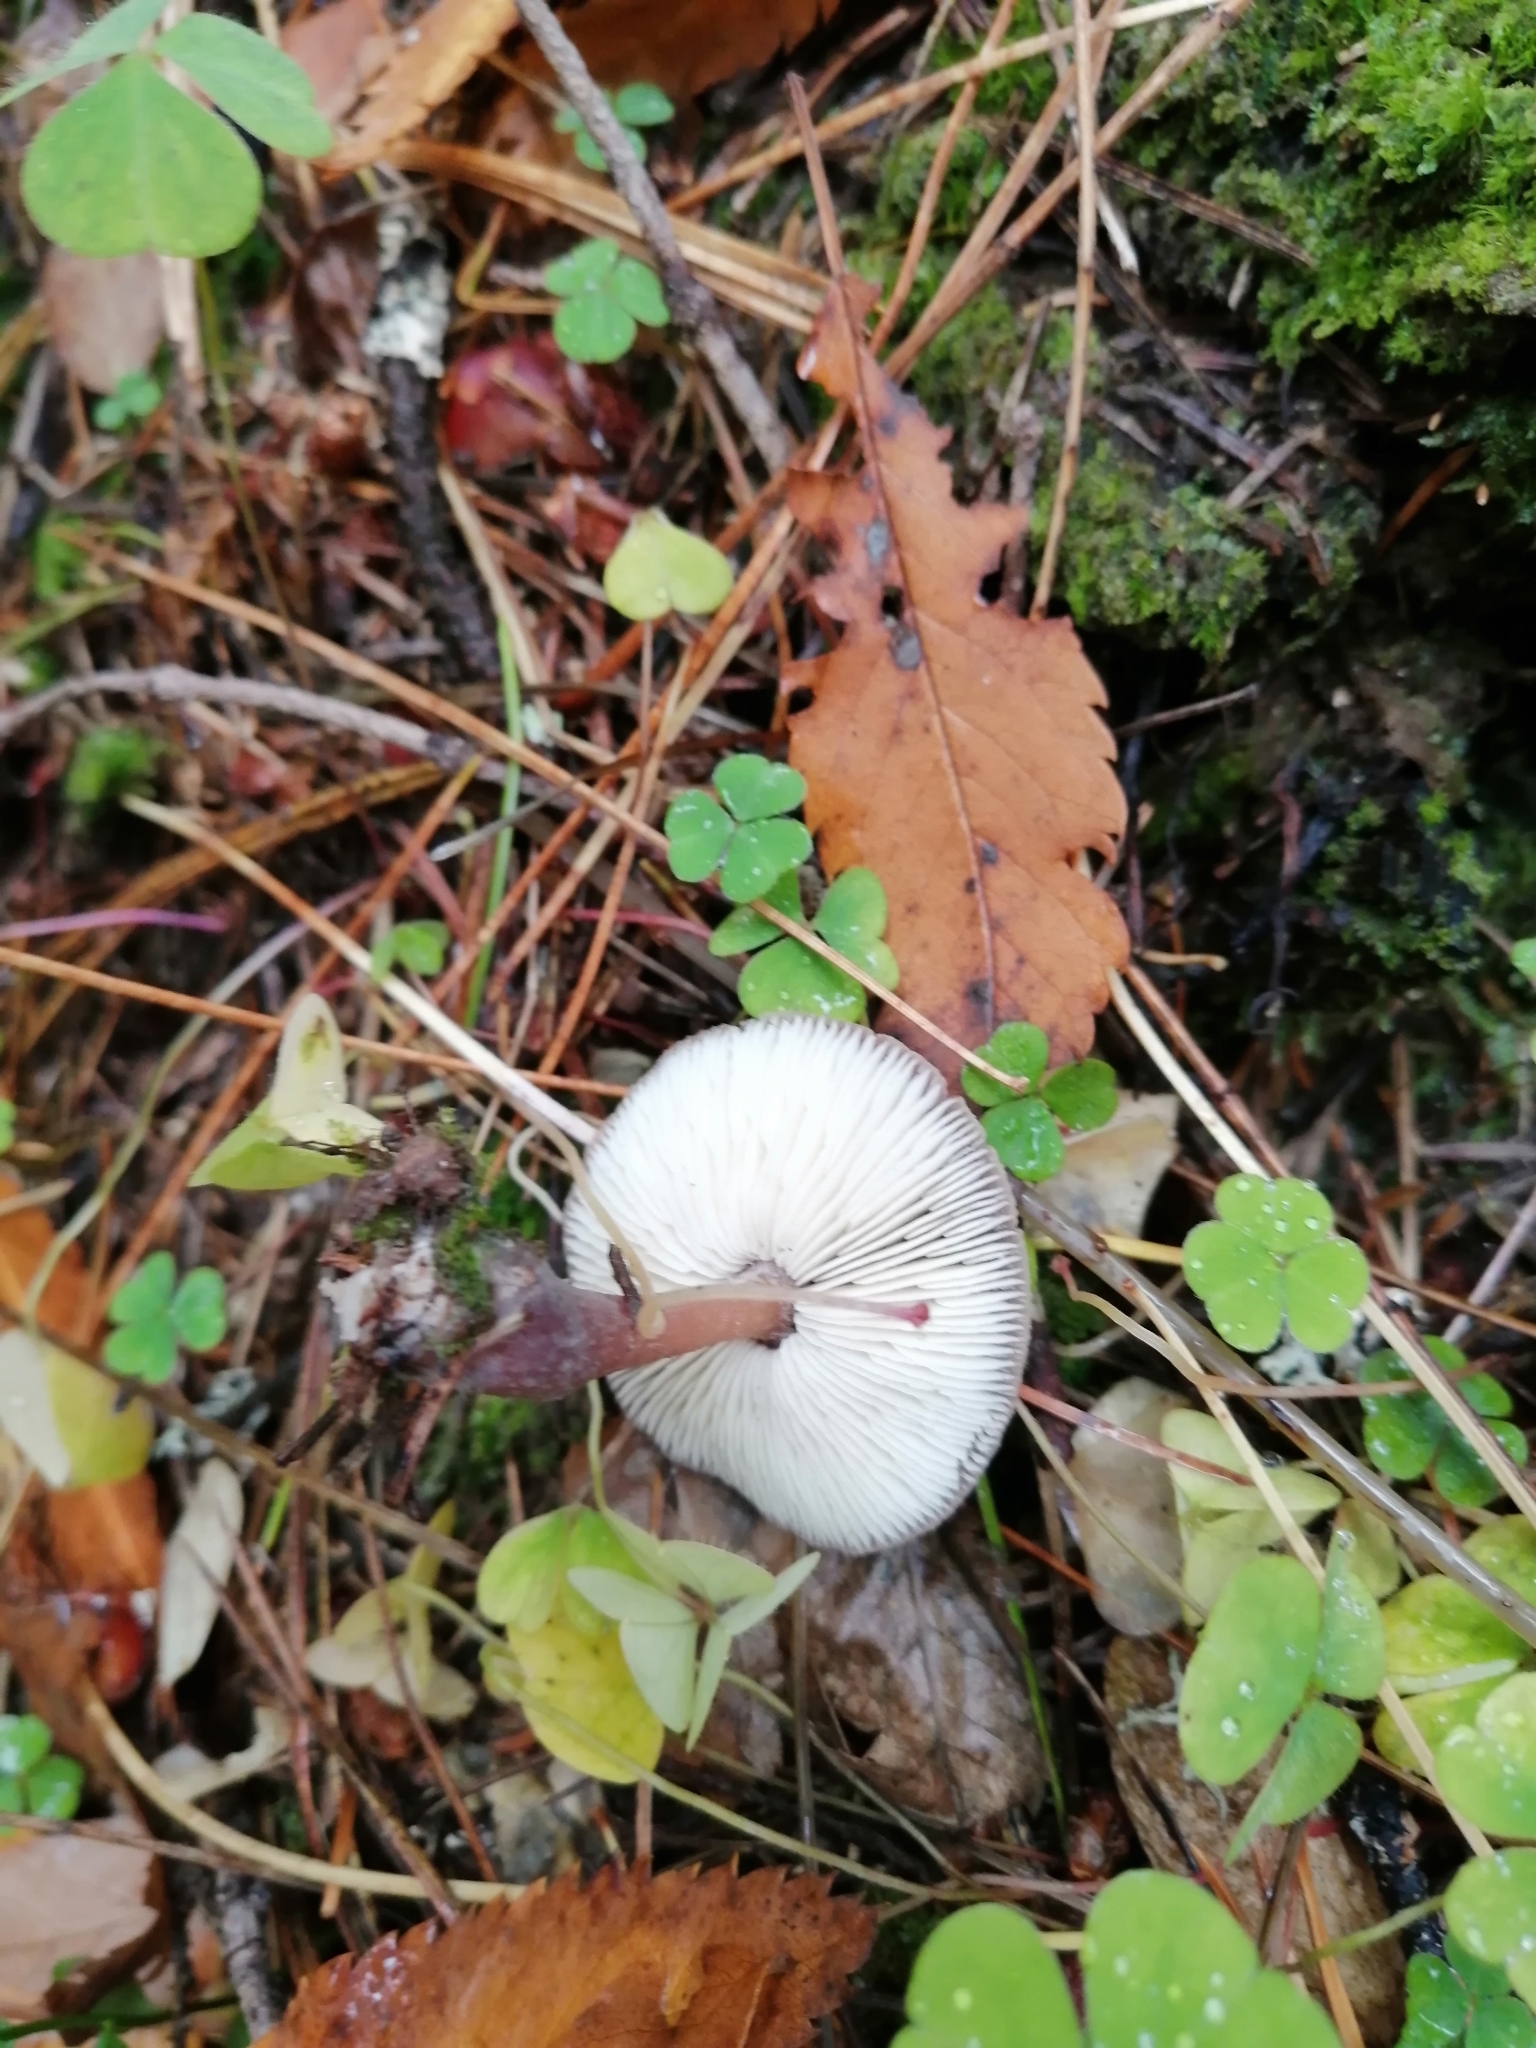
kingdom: Fungi
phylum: Basidiomycota
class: Agaricomycetes
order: Agaricales
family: Omphalotaceae
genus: Rhodocollybia
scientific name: Rhodocollybia butyracea
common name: Butter cap
